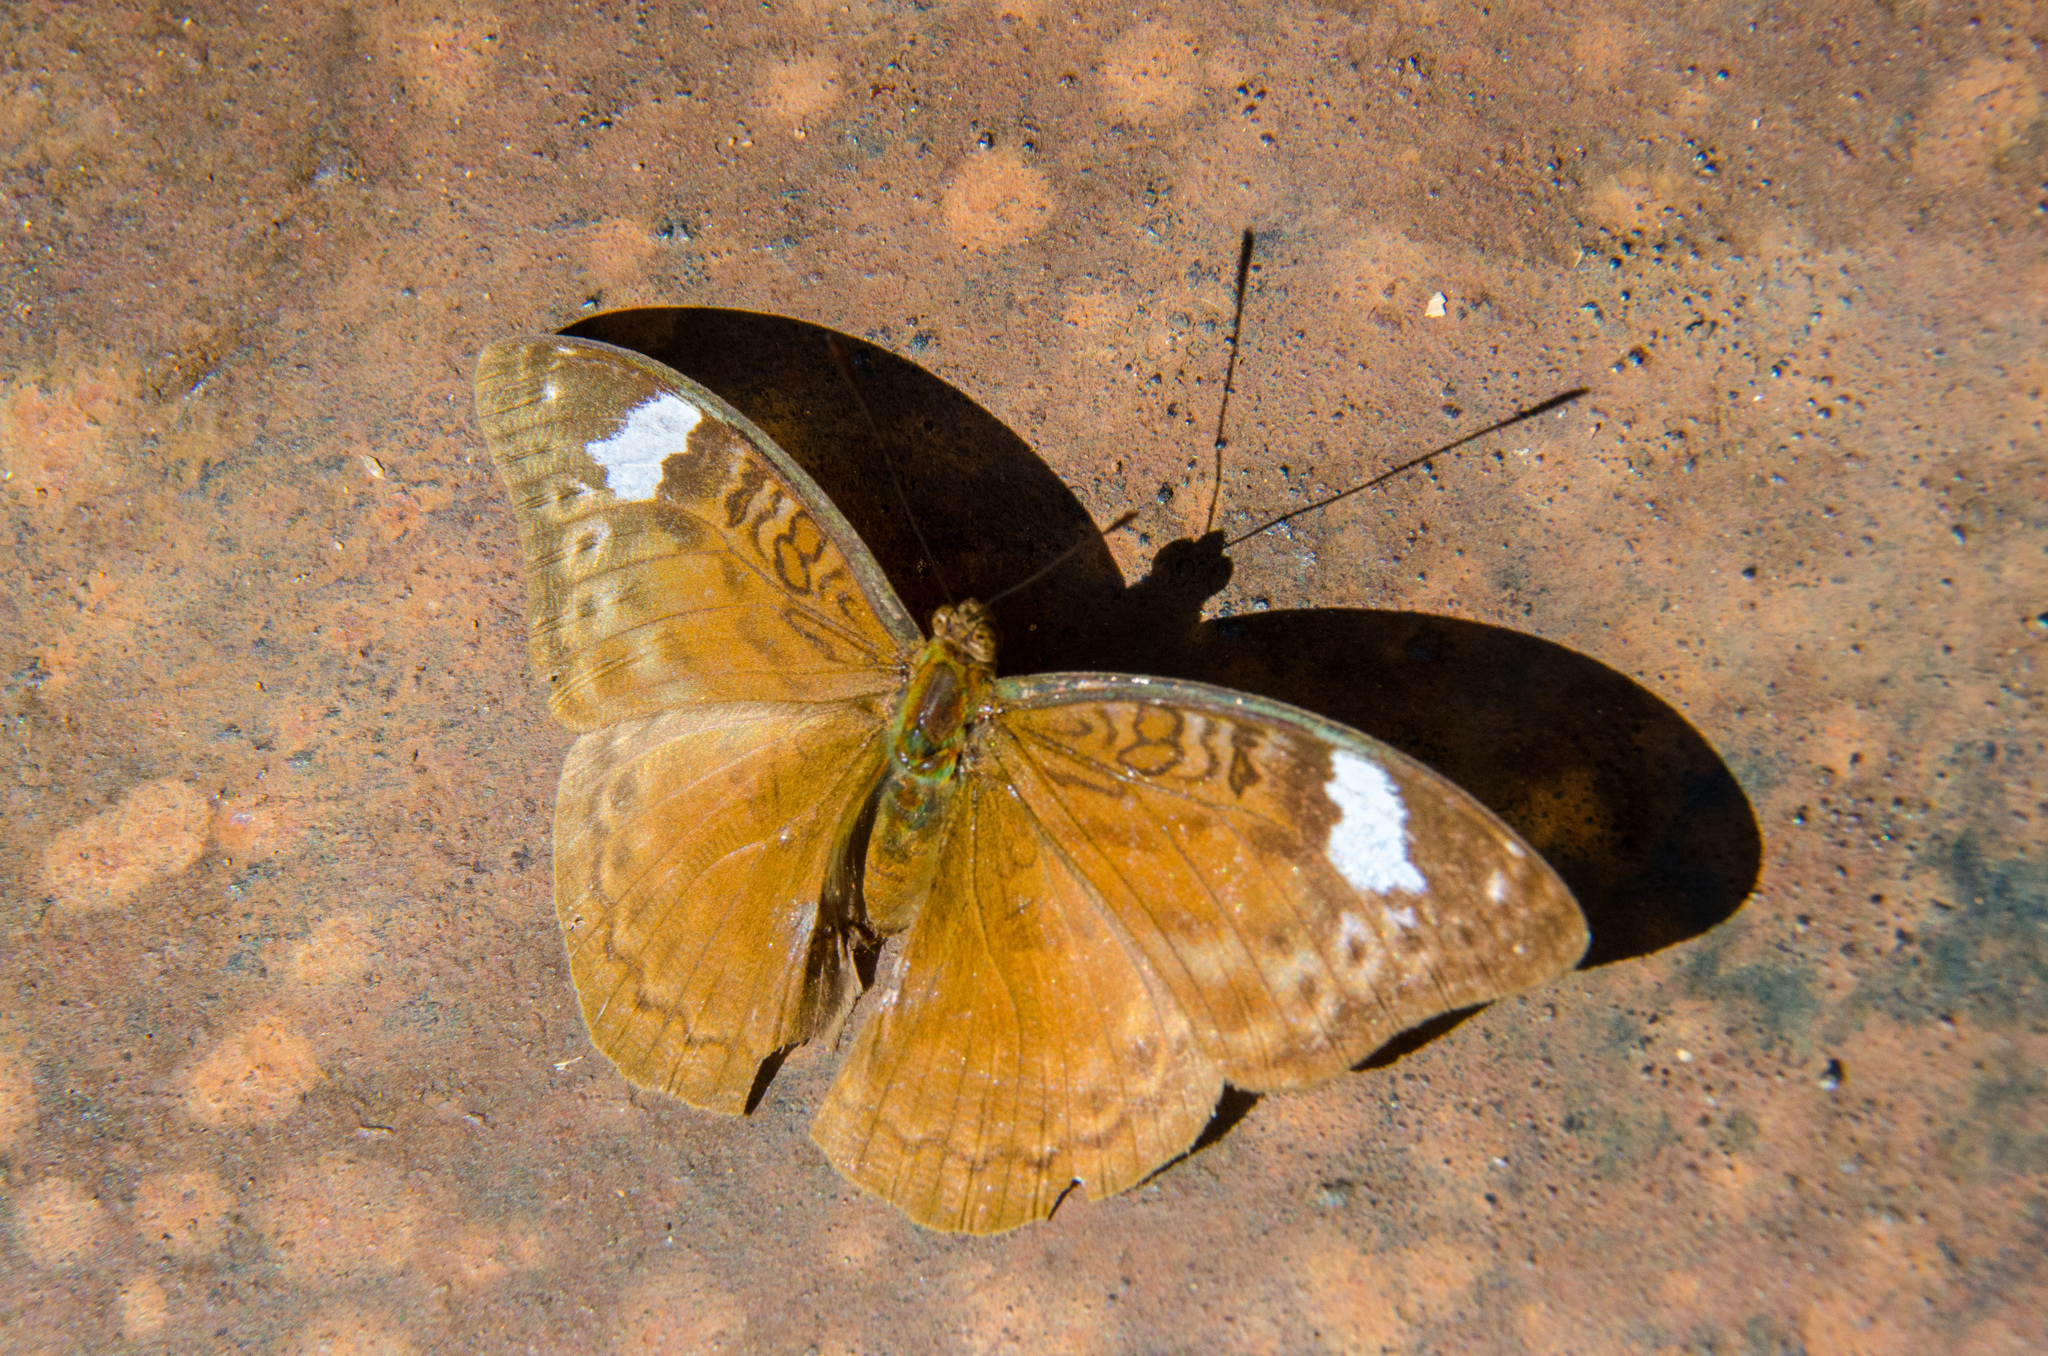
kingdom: Animalia
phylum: Arthropoda
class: Insecta
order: Lepidoptera
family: Nymphalidae
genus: Bebearia
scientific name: Bebearia brunhilda
